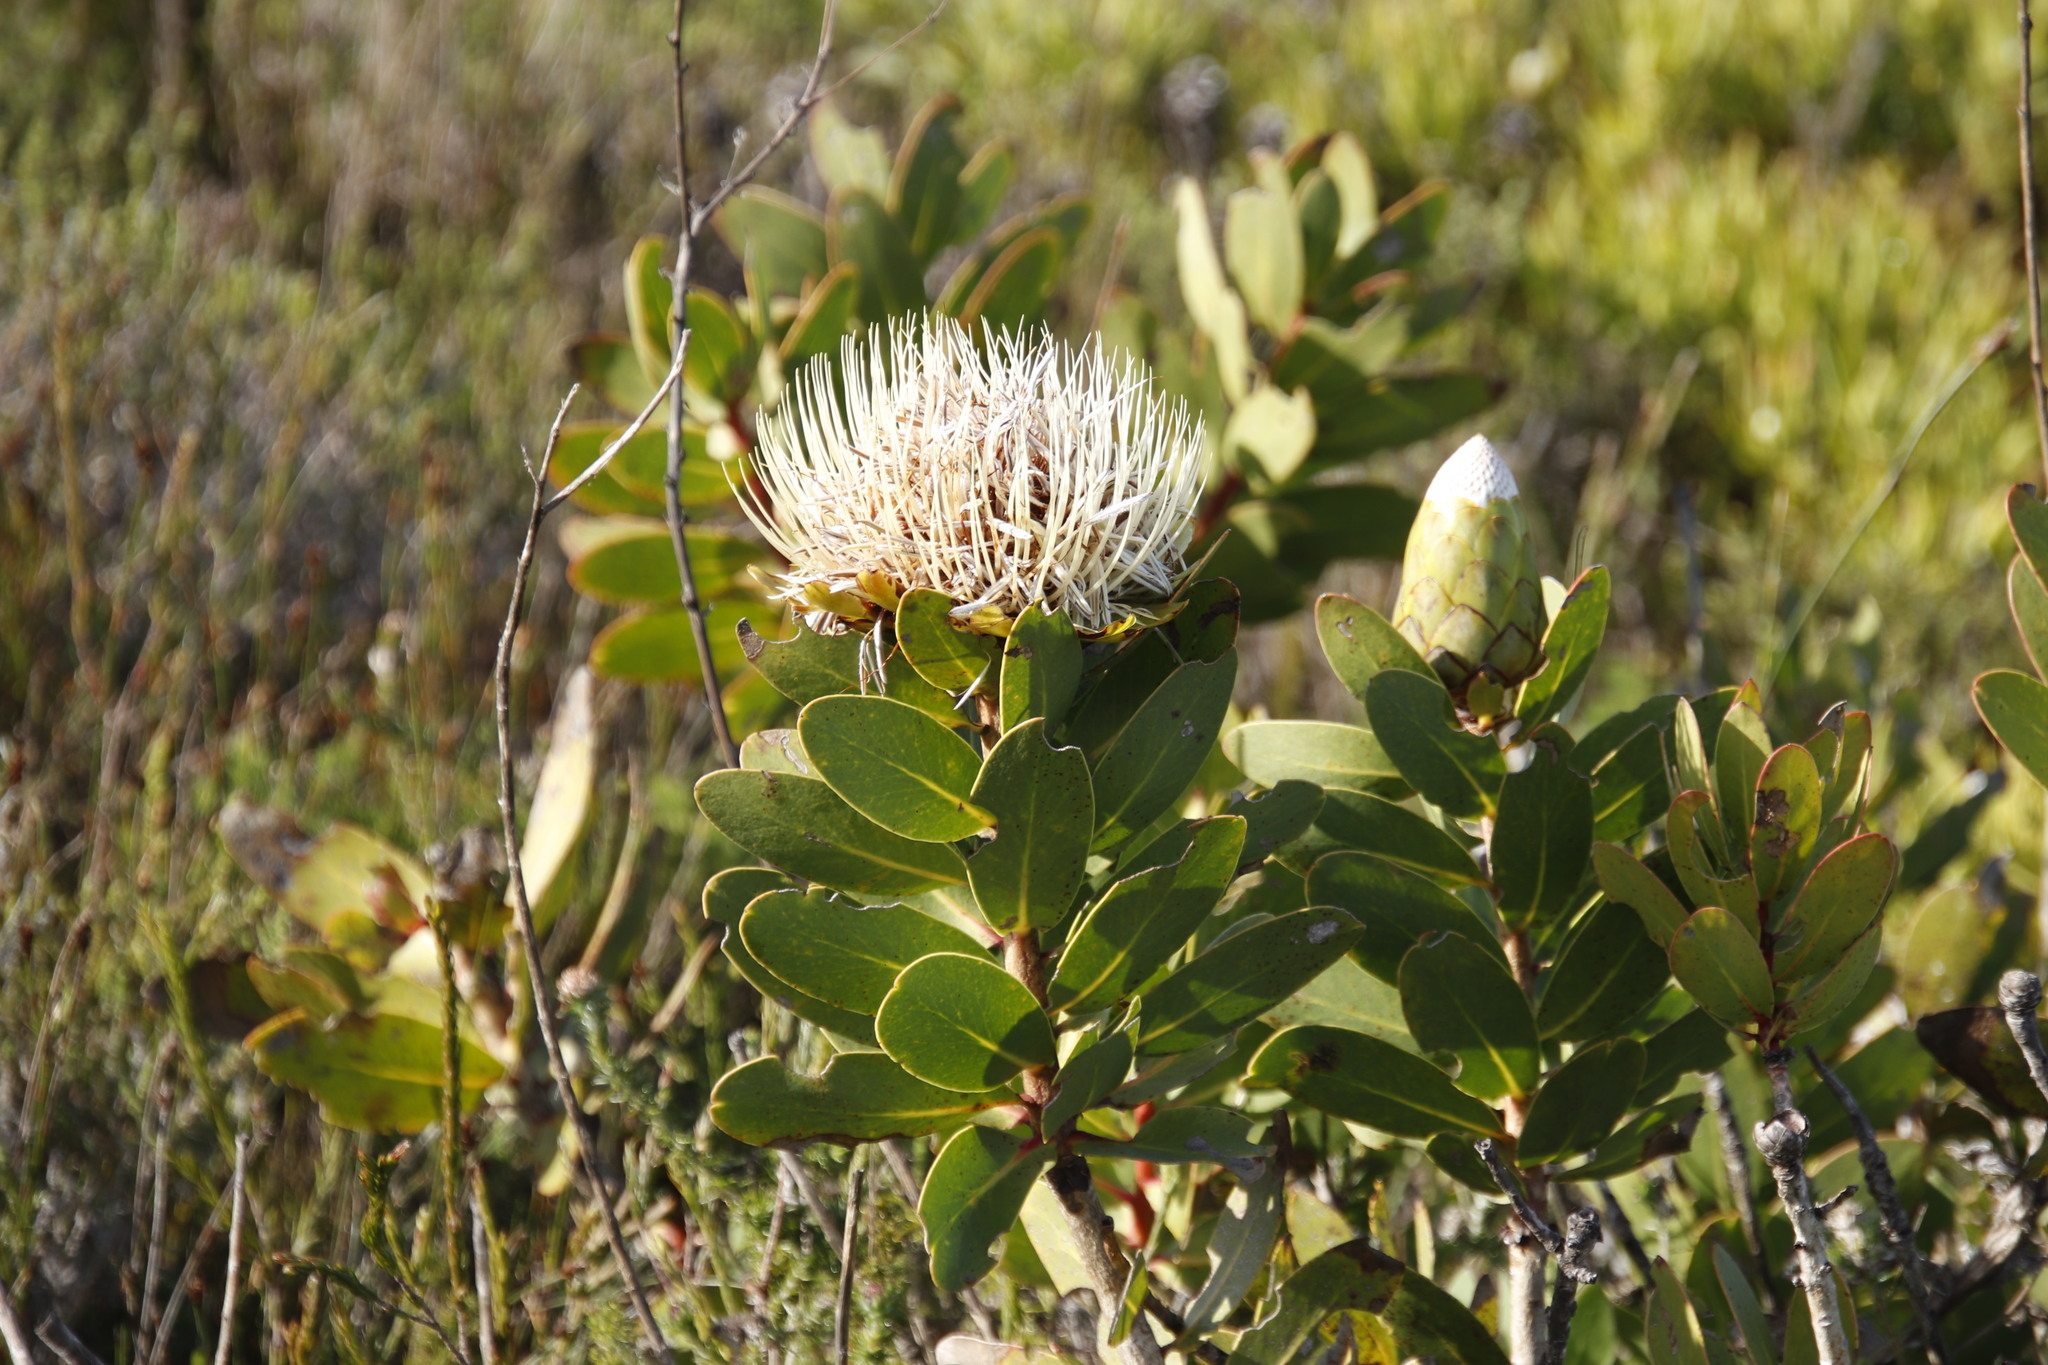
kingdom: Plantae
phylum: Tracheophyta
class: Magnoliopsida
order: Proteales
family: Proteaceae
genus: Protea
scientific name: Protea nitida
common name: Tree protea
